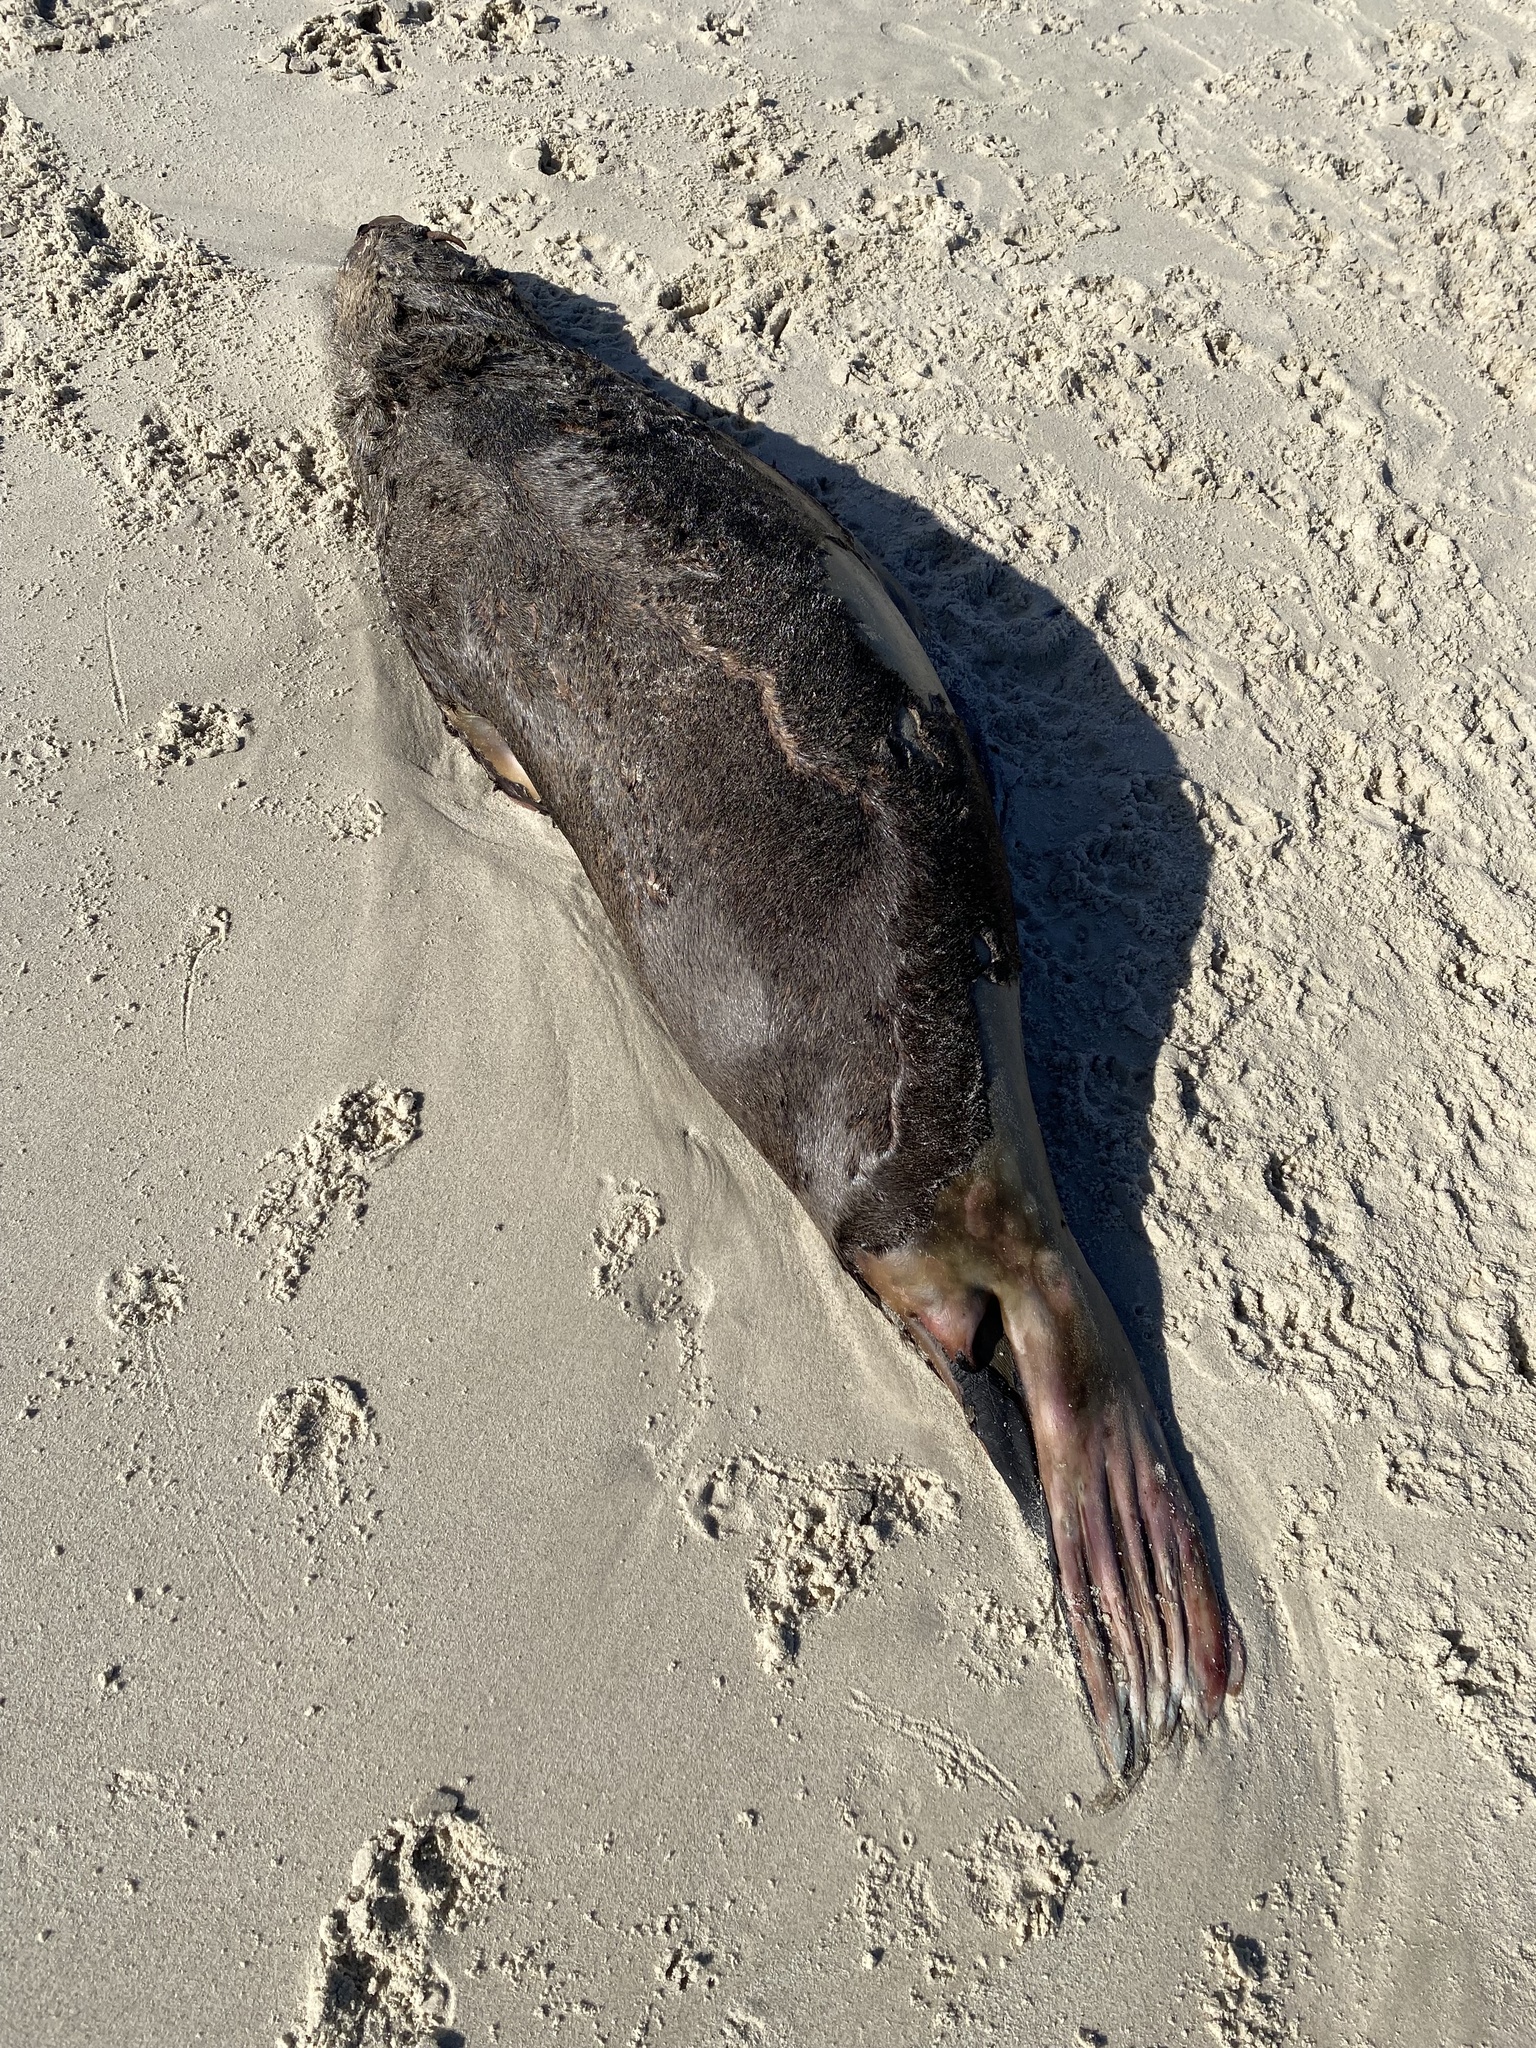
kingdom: Animalia
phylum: Chordata
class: Mammalia
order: Carnivora
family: Otariidae
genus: Arctocephalus
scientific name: Arctocephalus pusillus
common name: Brown fur seal
